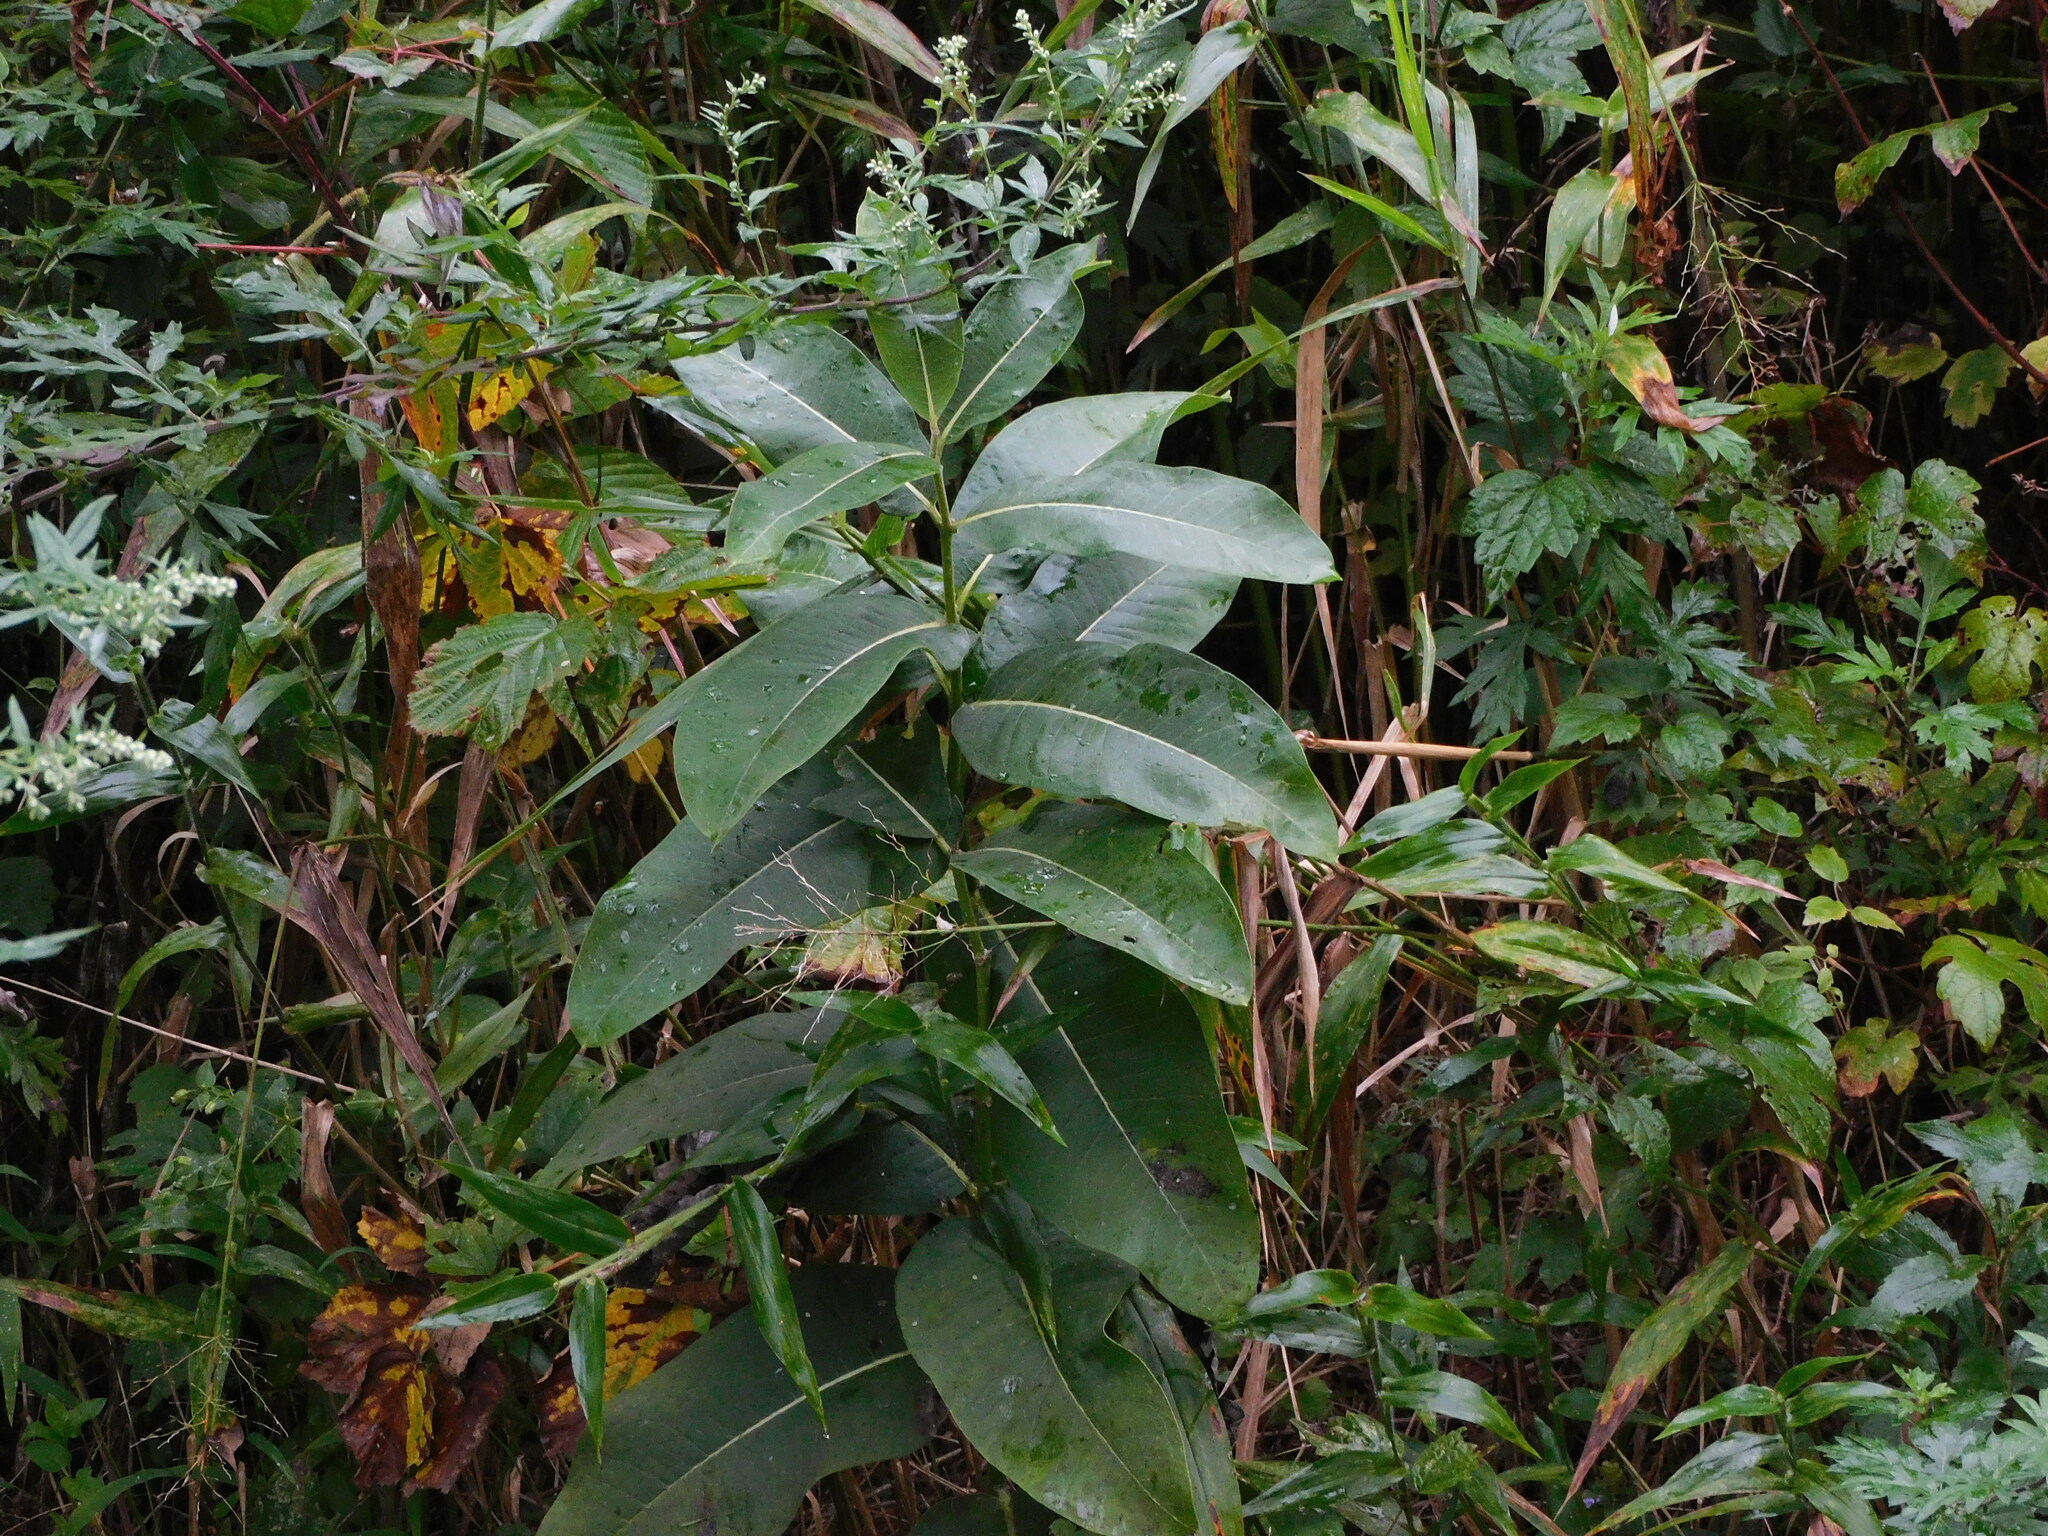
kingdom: Plantae
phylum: Tracheophyta
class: Magnoliopsida
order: Gentianales
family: Apocynaceae
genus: Asclepias
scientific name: Asclepias syriaca
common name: Common milkweed
